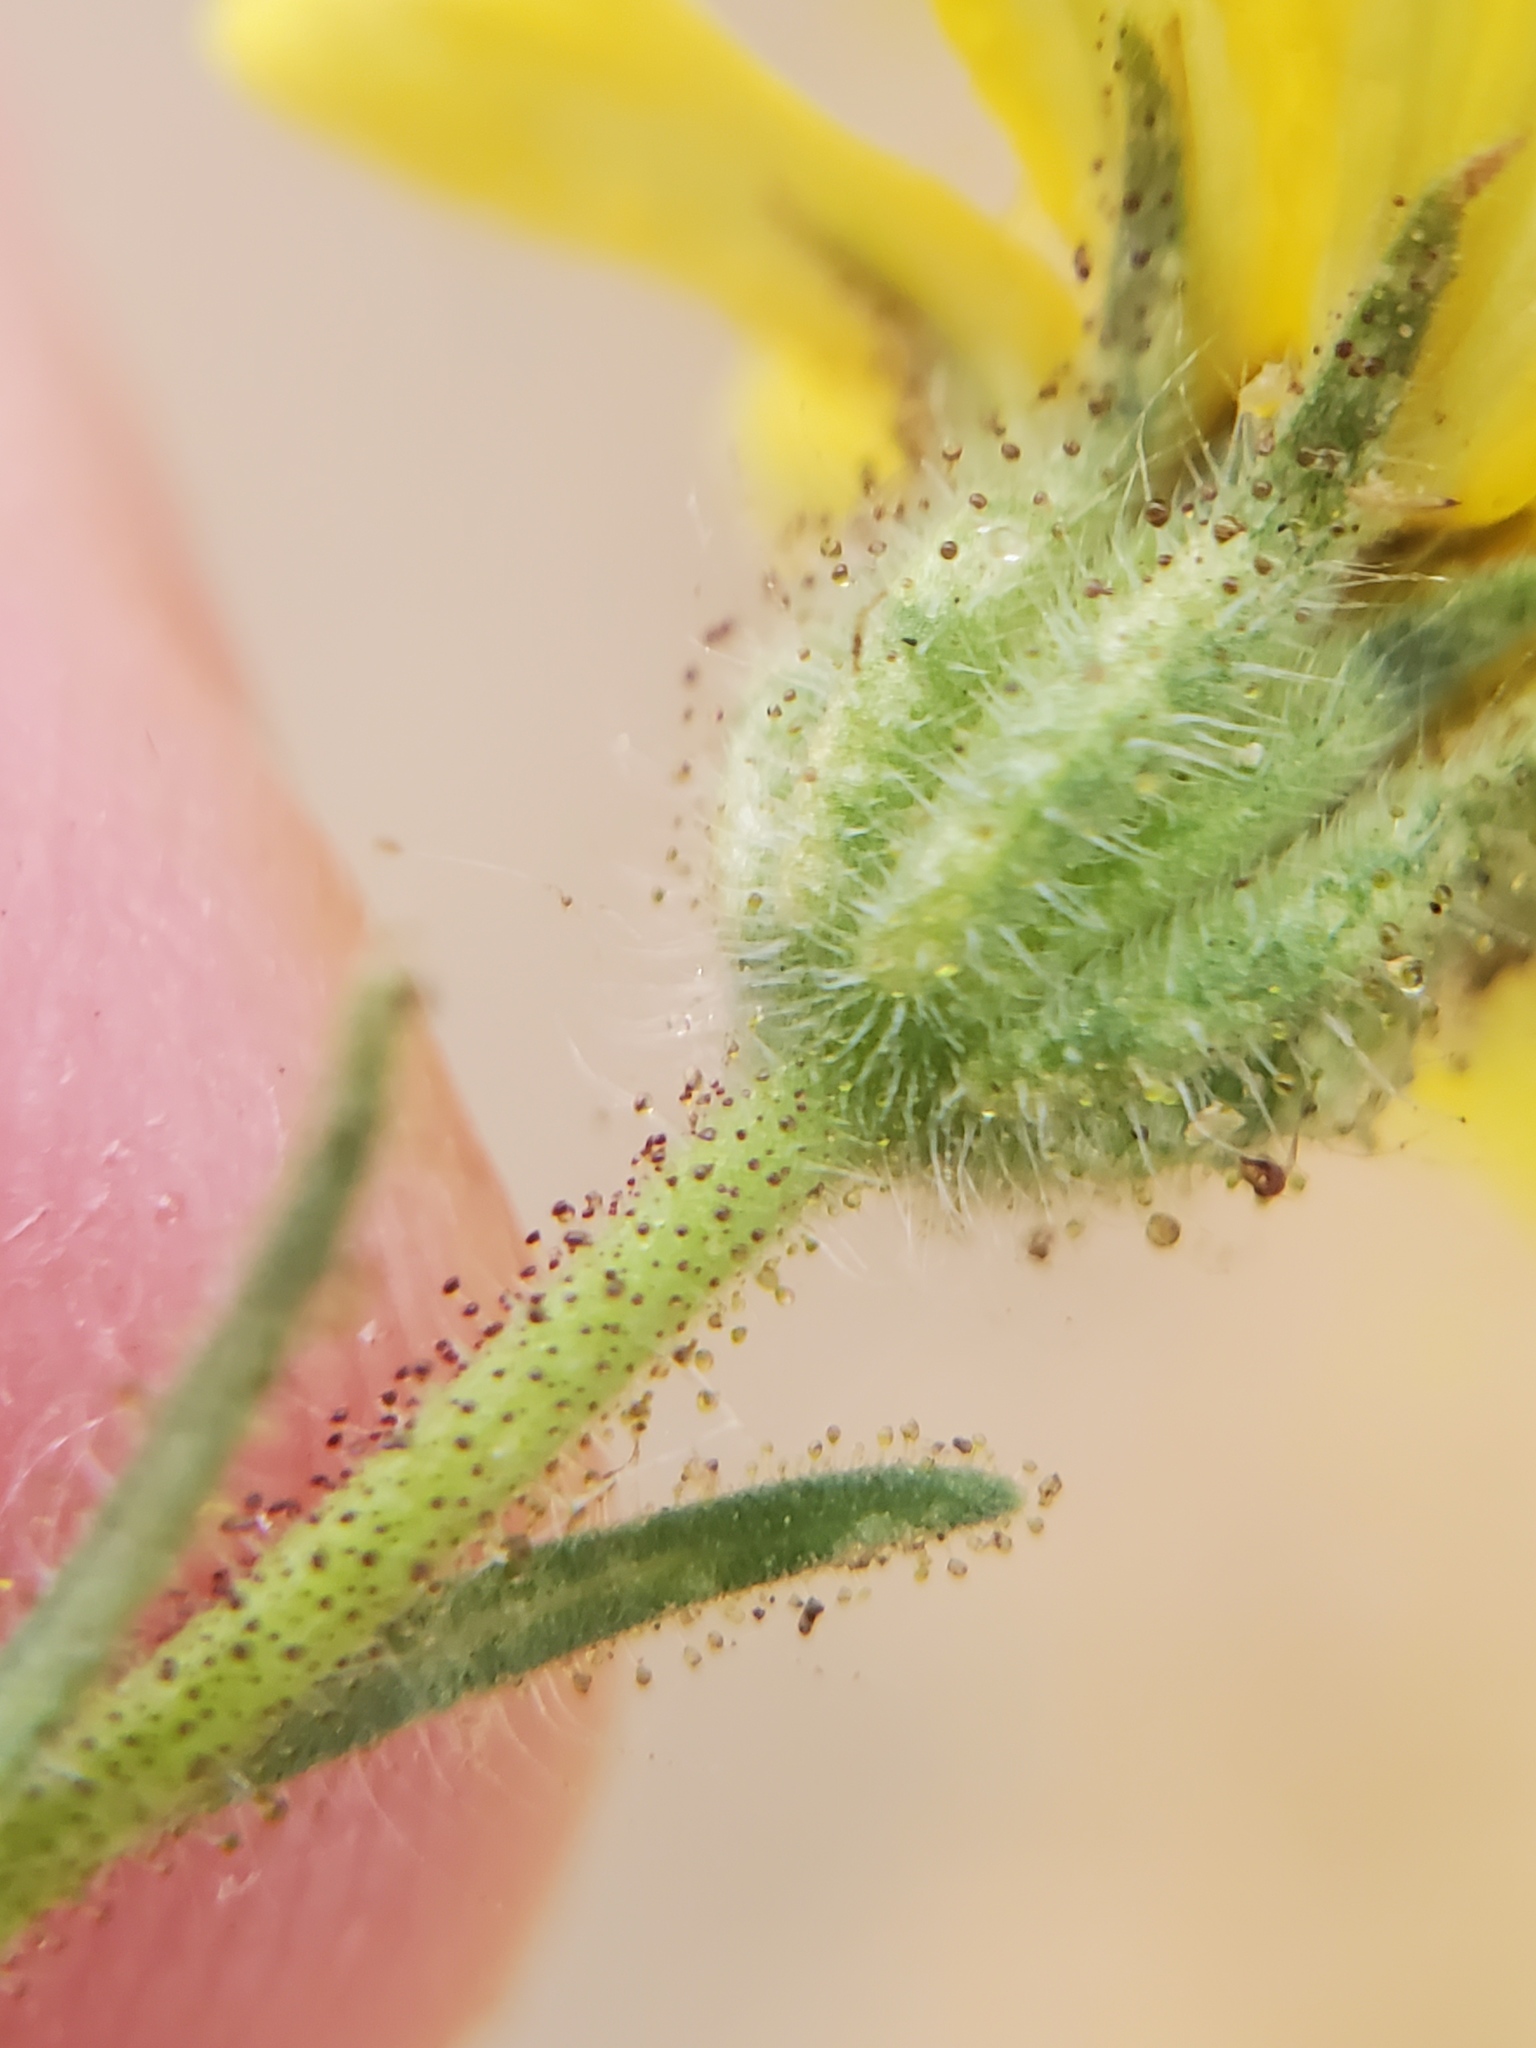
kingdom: Plantae
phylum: Tracheophyta
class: Magnoliopsida
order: Asterales
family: Asteraceae
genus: Centromadia
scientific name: Centromadia fitchii
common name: Fitch's spikeweed
